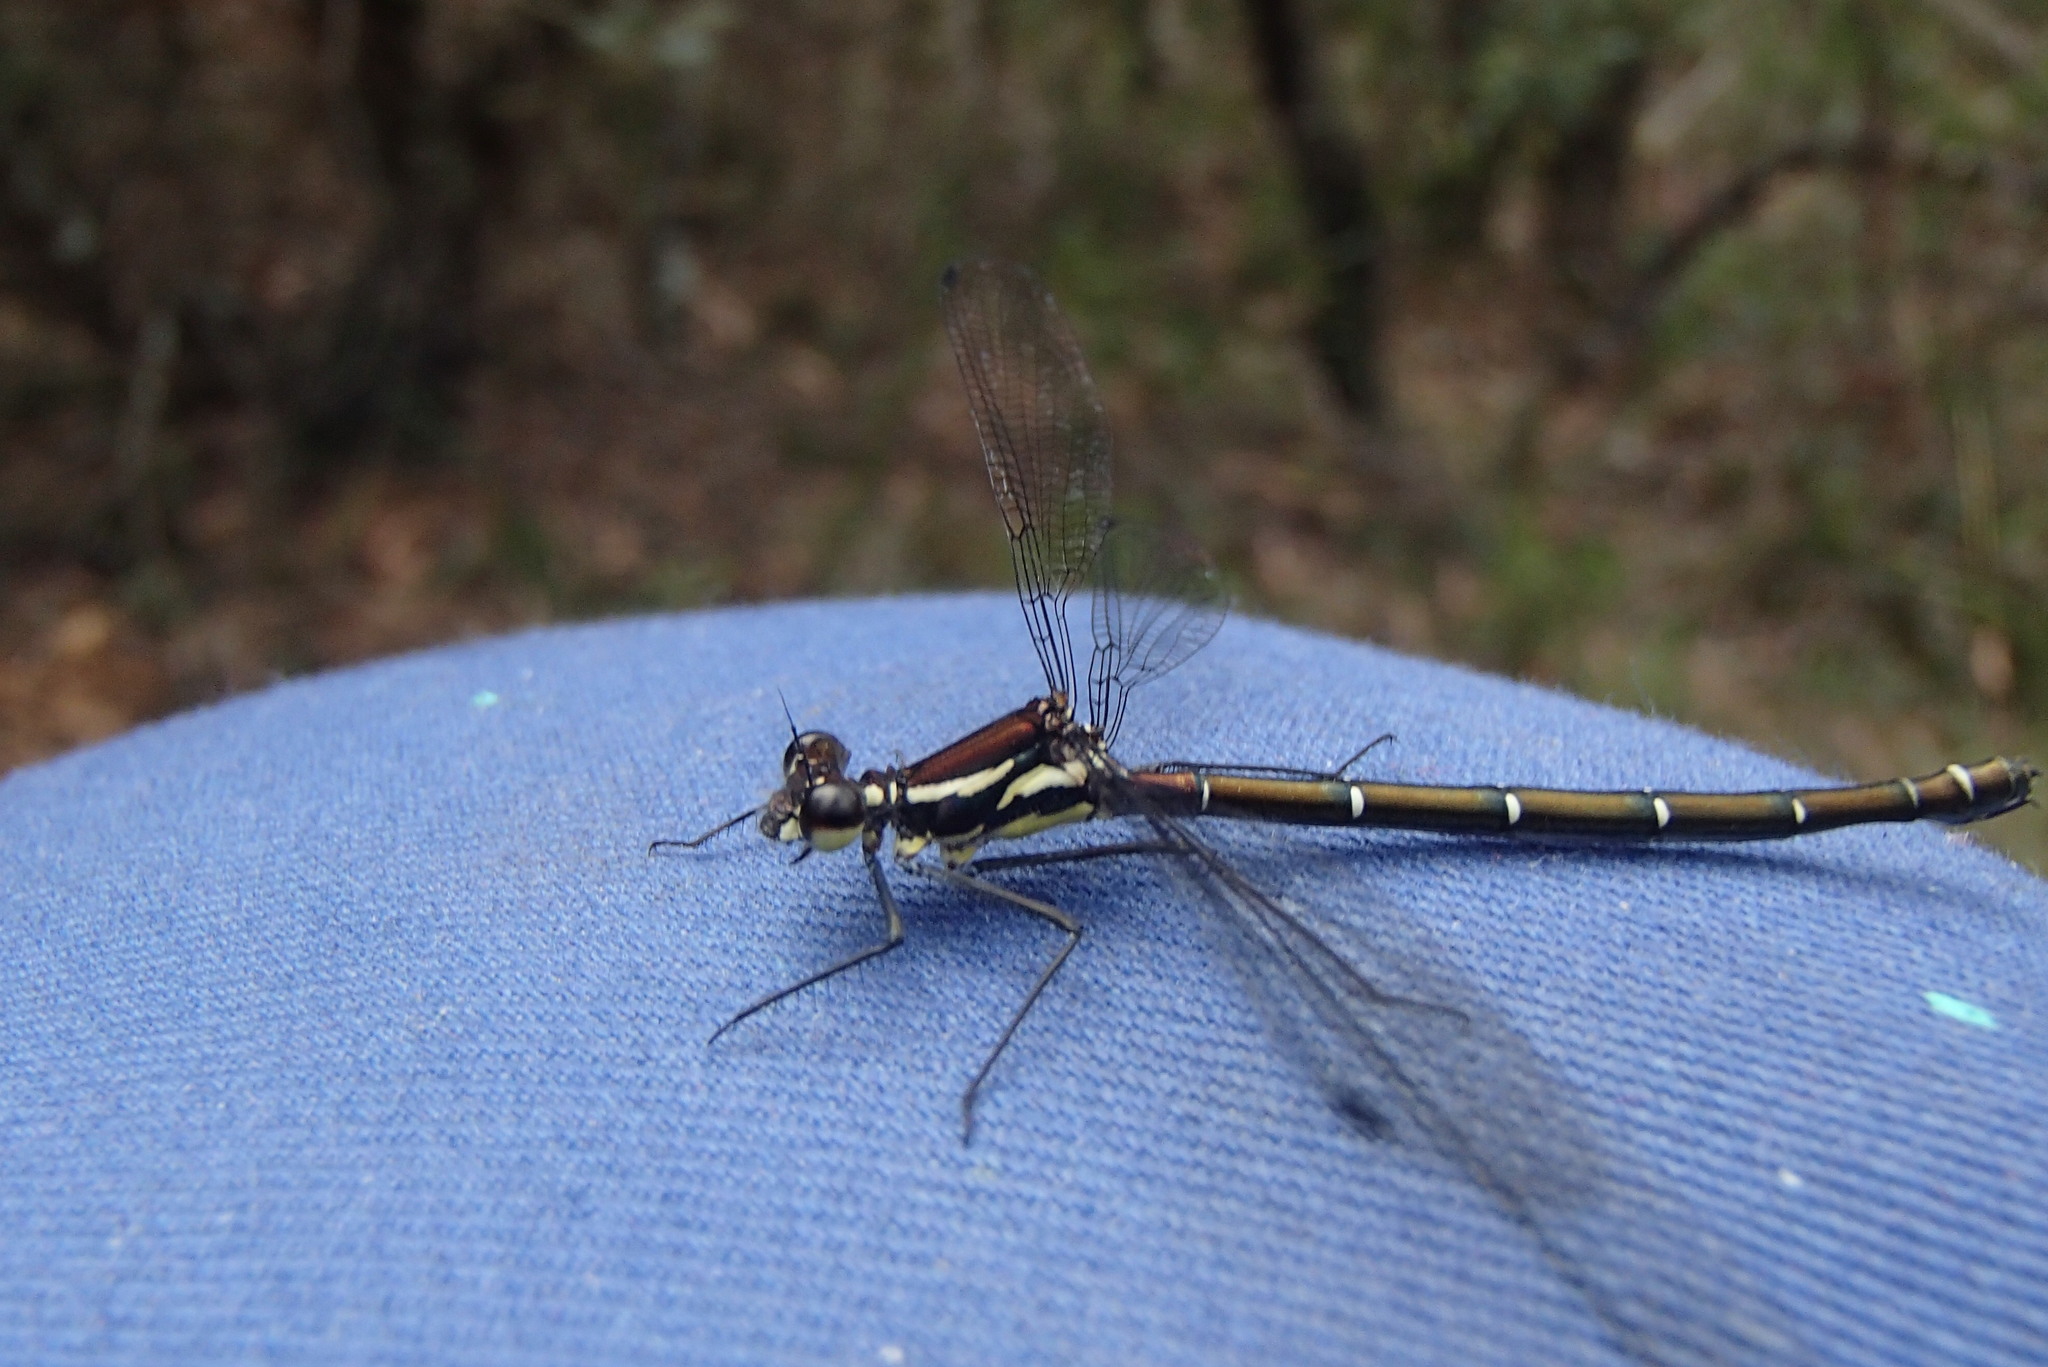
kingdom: Animalia
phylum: Arthropoda
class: Insecta
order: Odonata
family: Argiolestidae
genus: Austroargiolestes
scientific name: Austroargiolestes isabellae
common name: Sydney flatwing
